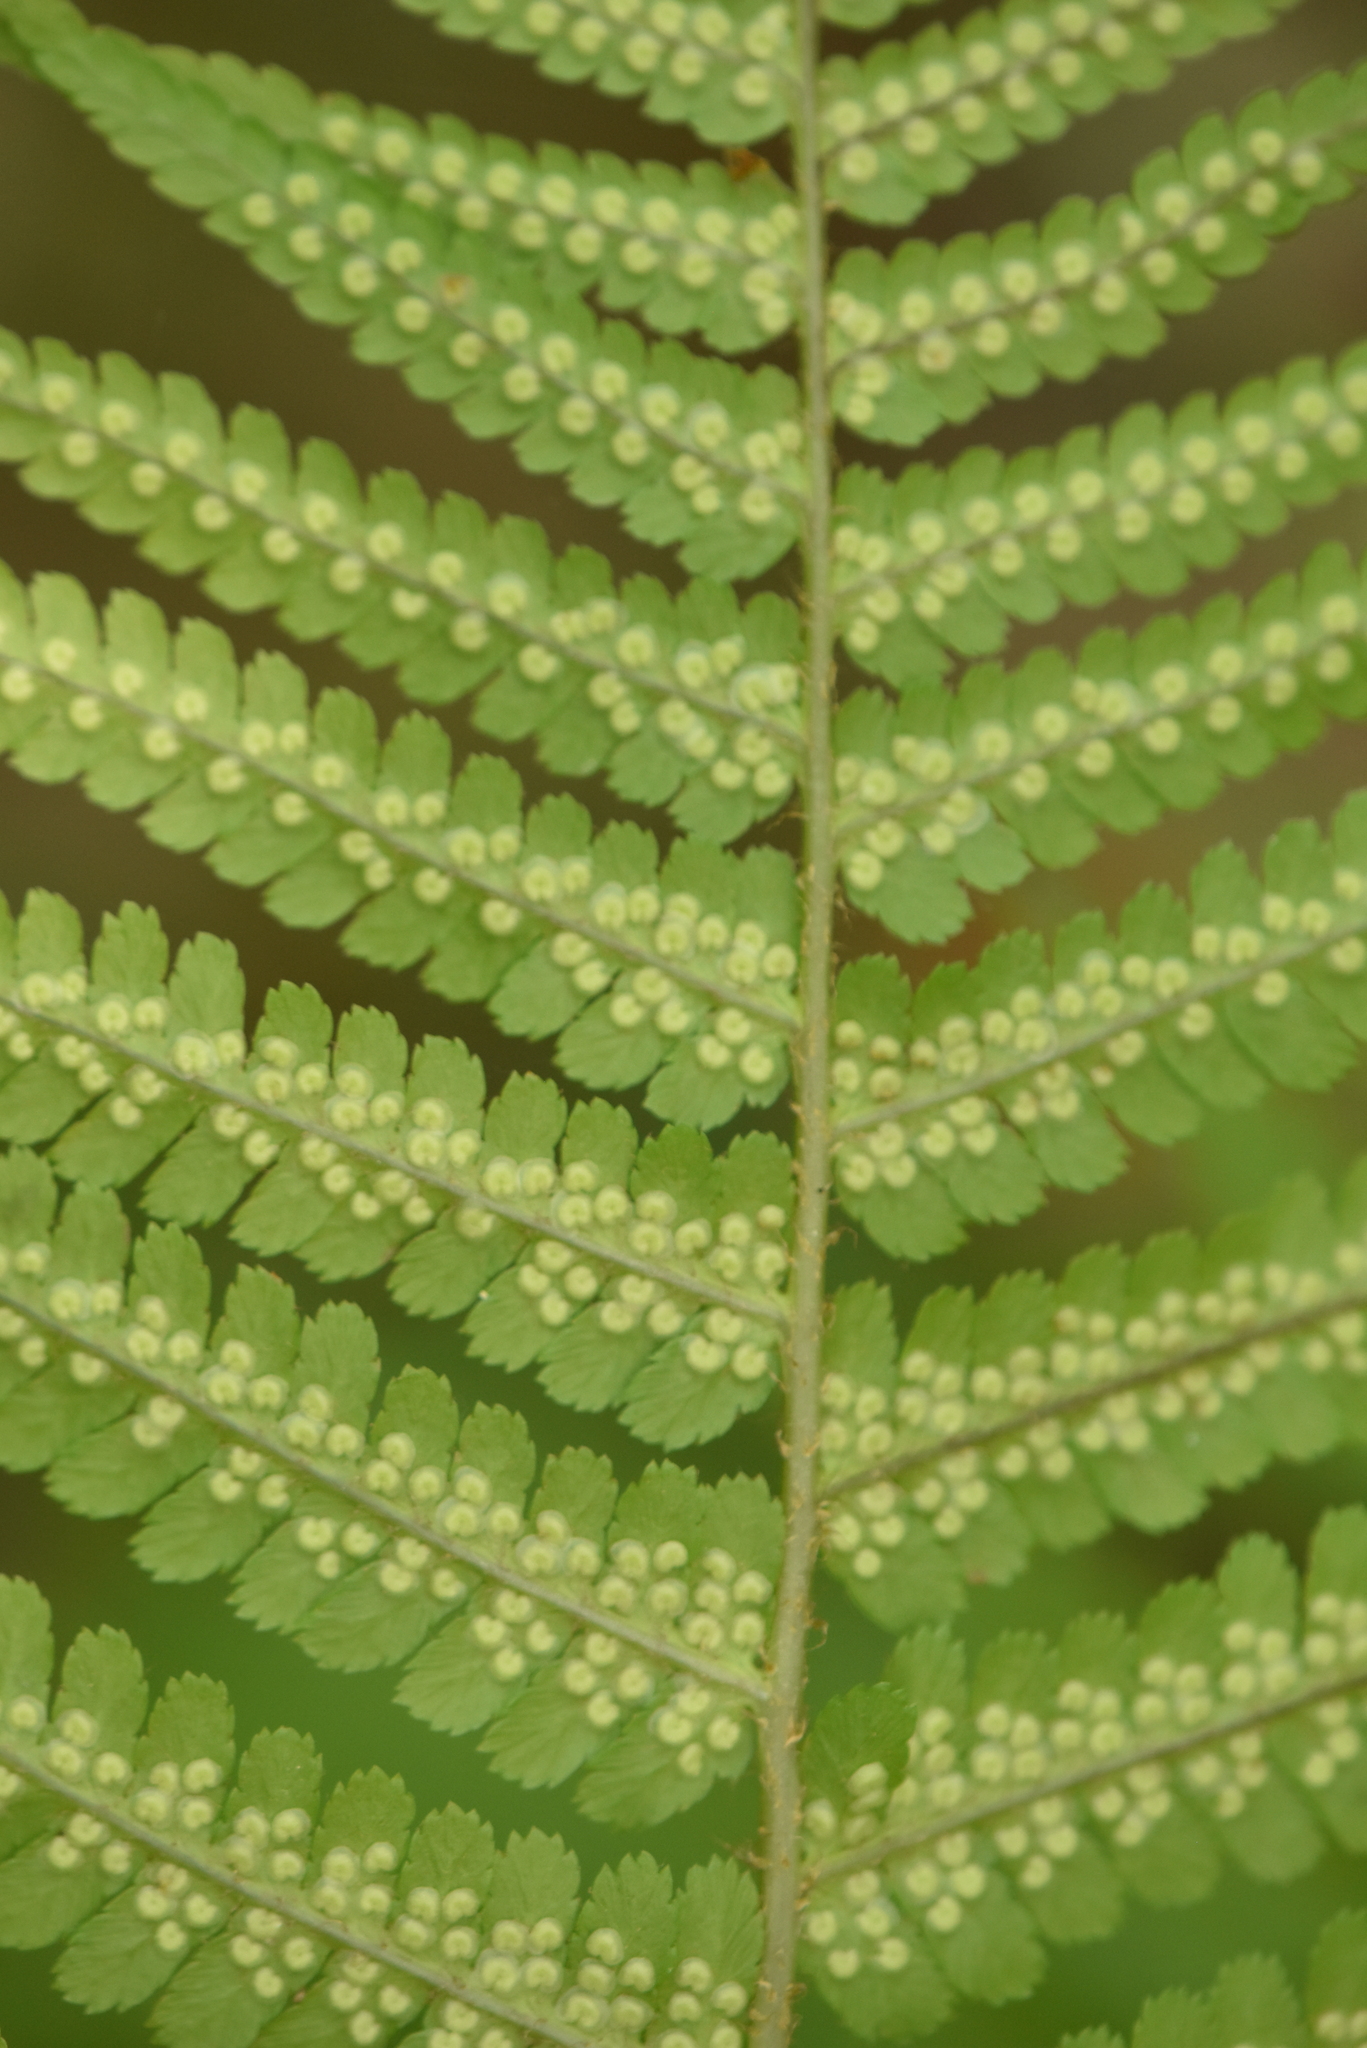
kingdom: Plantae
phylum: Tracheophyta
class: Polypodiopsida
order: Polypodiales
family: Dryopteridaceae
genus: Dryopteris
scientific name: Dryopteris filix-mas
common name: Male fern
